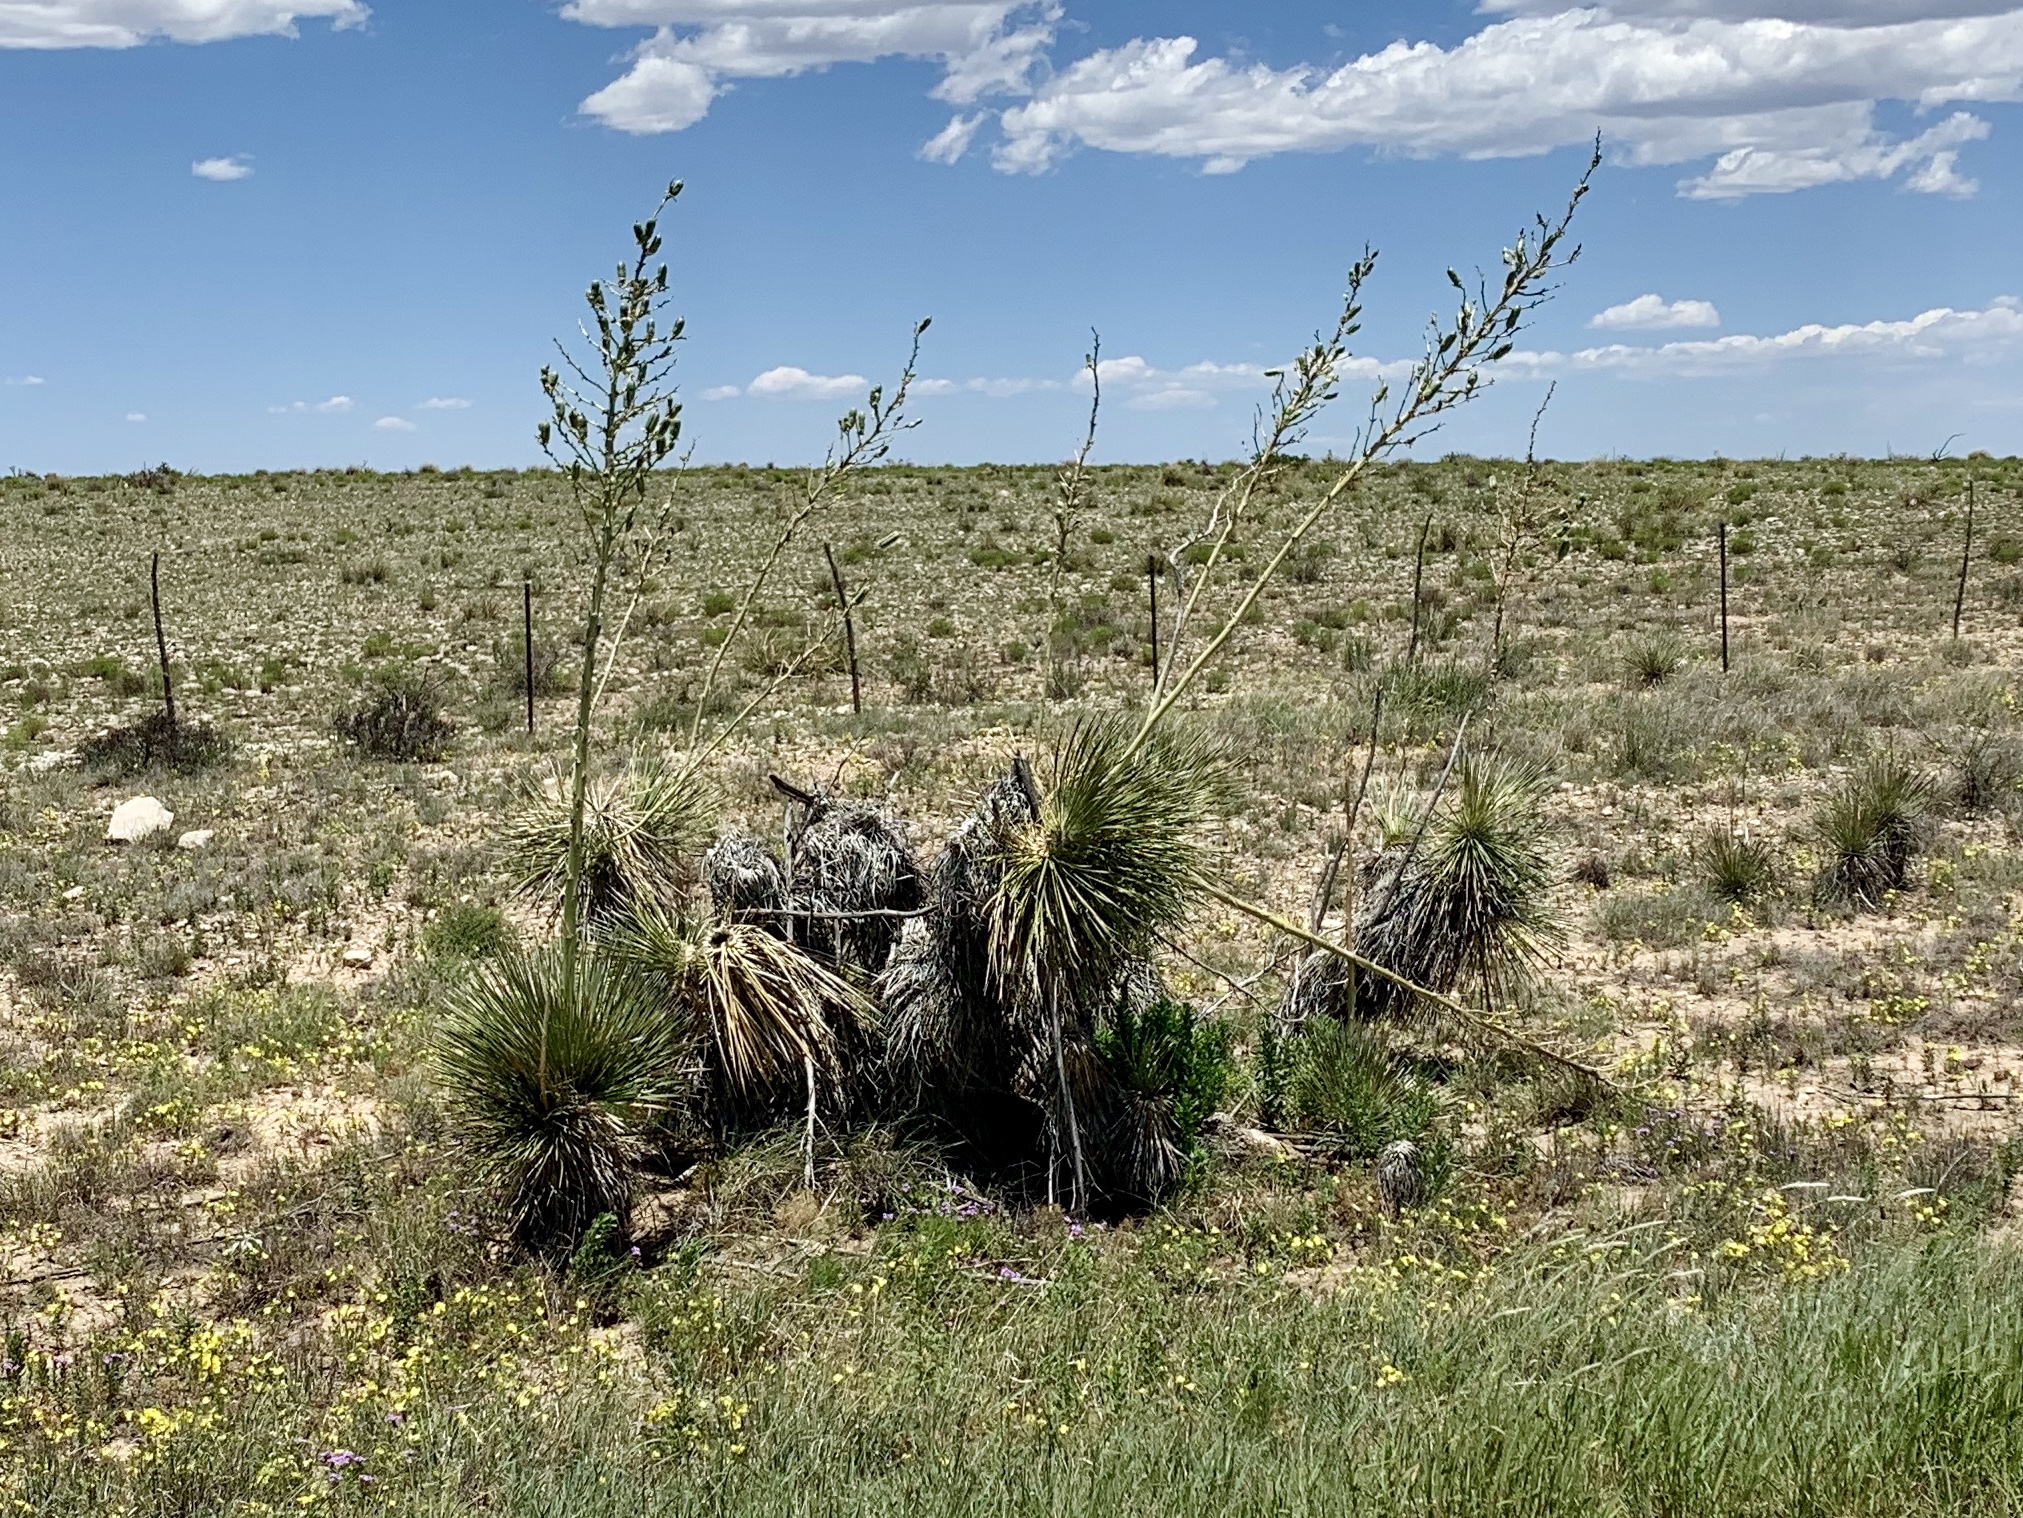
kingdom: Plantae
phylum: Tracheophyta
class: Liliopsida
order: Asparagales
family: Asparagaceae
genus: Yucca
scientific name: Yucca elata
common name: Palmella
